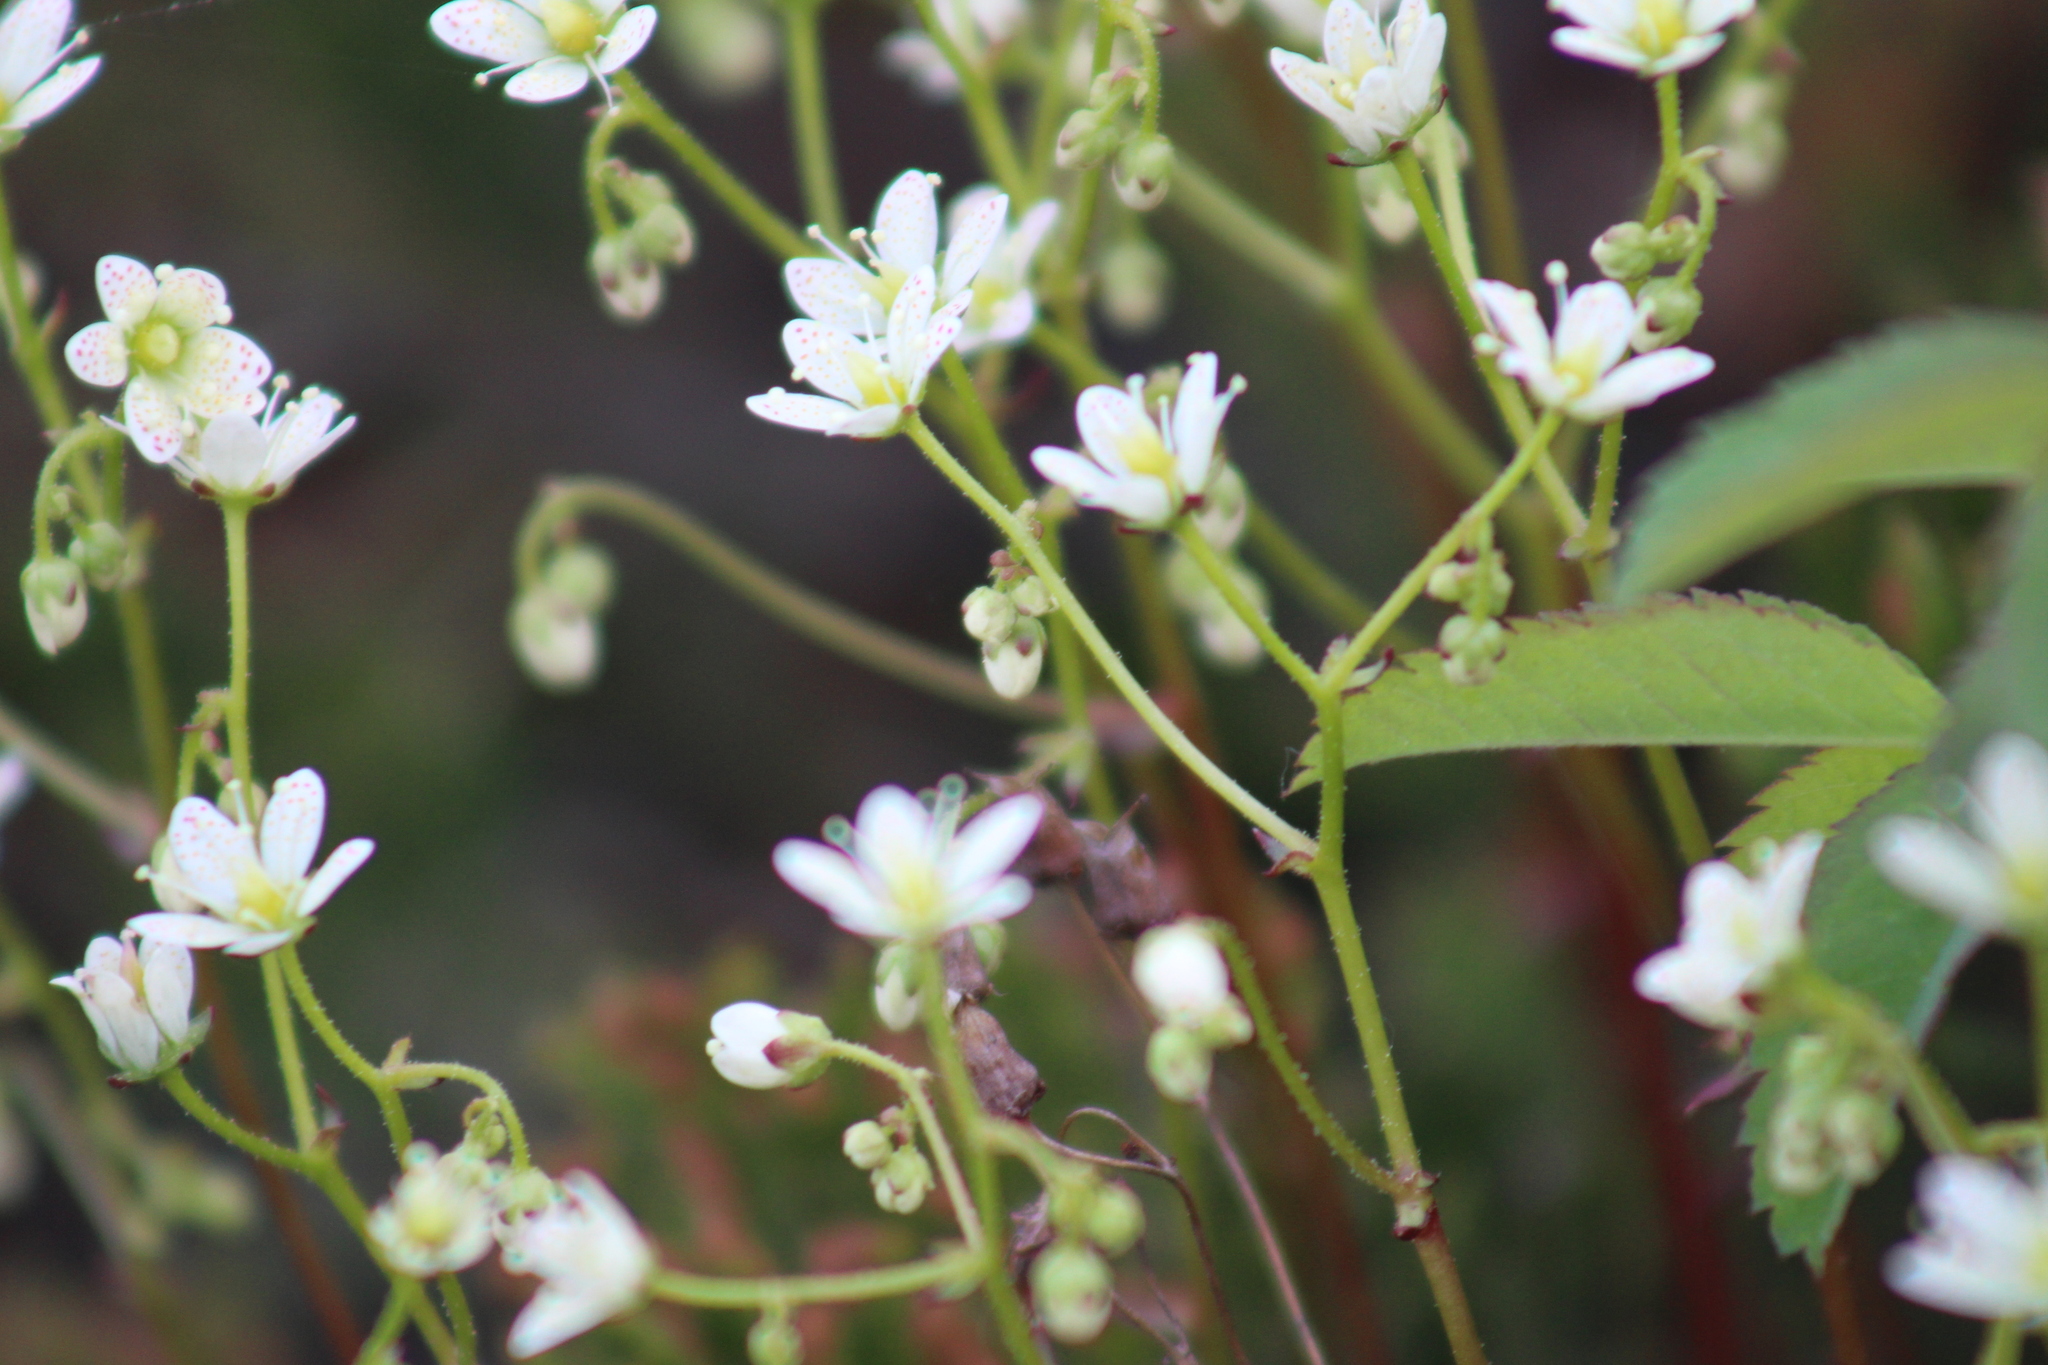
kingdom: Plantae
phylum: Tracheophyta
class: Magnoliopsida
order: Saxifragales
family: Saxifragaceae
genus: Saxifraga
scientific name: Saxifraga tricuspidata
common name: Prickly saxifrage
